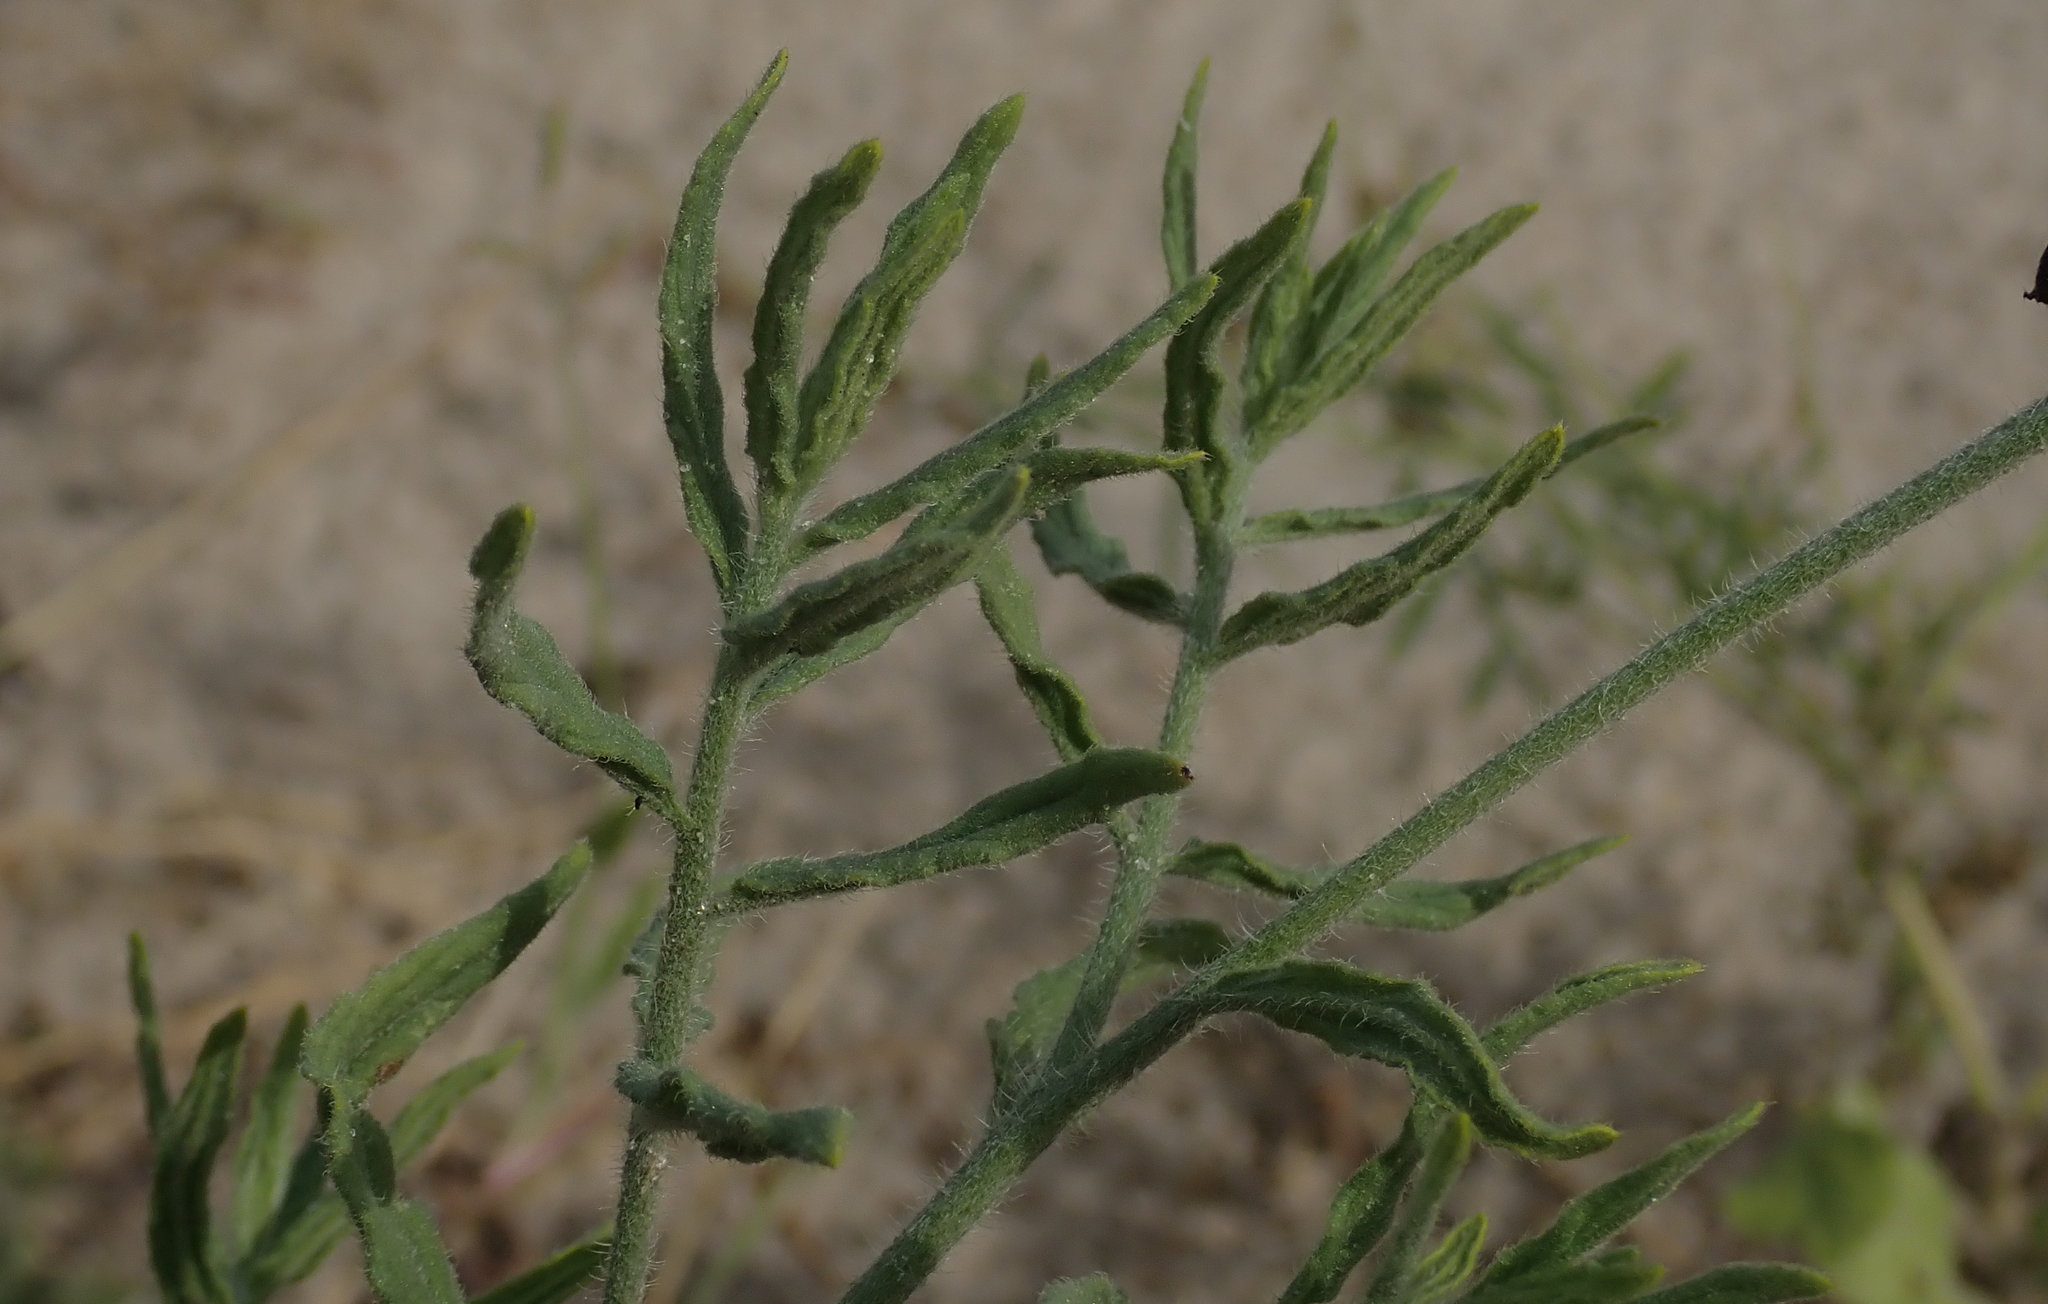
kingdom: Plantae
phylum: Tracheophyta
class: Magnoliopsida
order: Boraginales
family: Heliotropiaceae
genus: Heliotropium
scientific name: Heliotropium ciliatum
